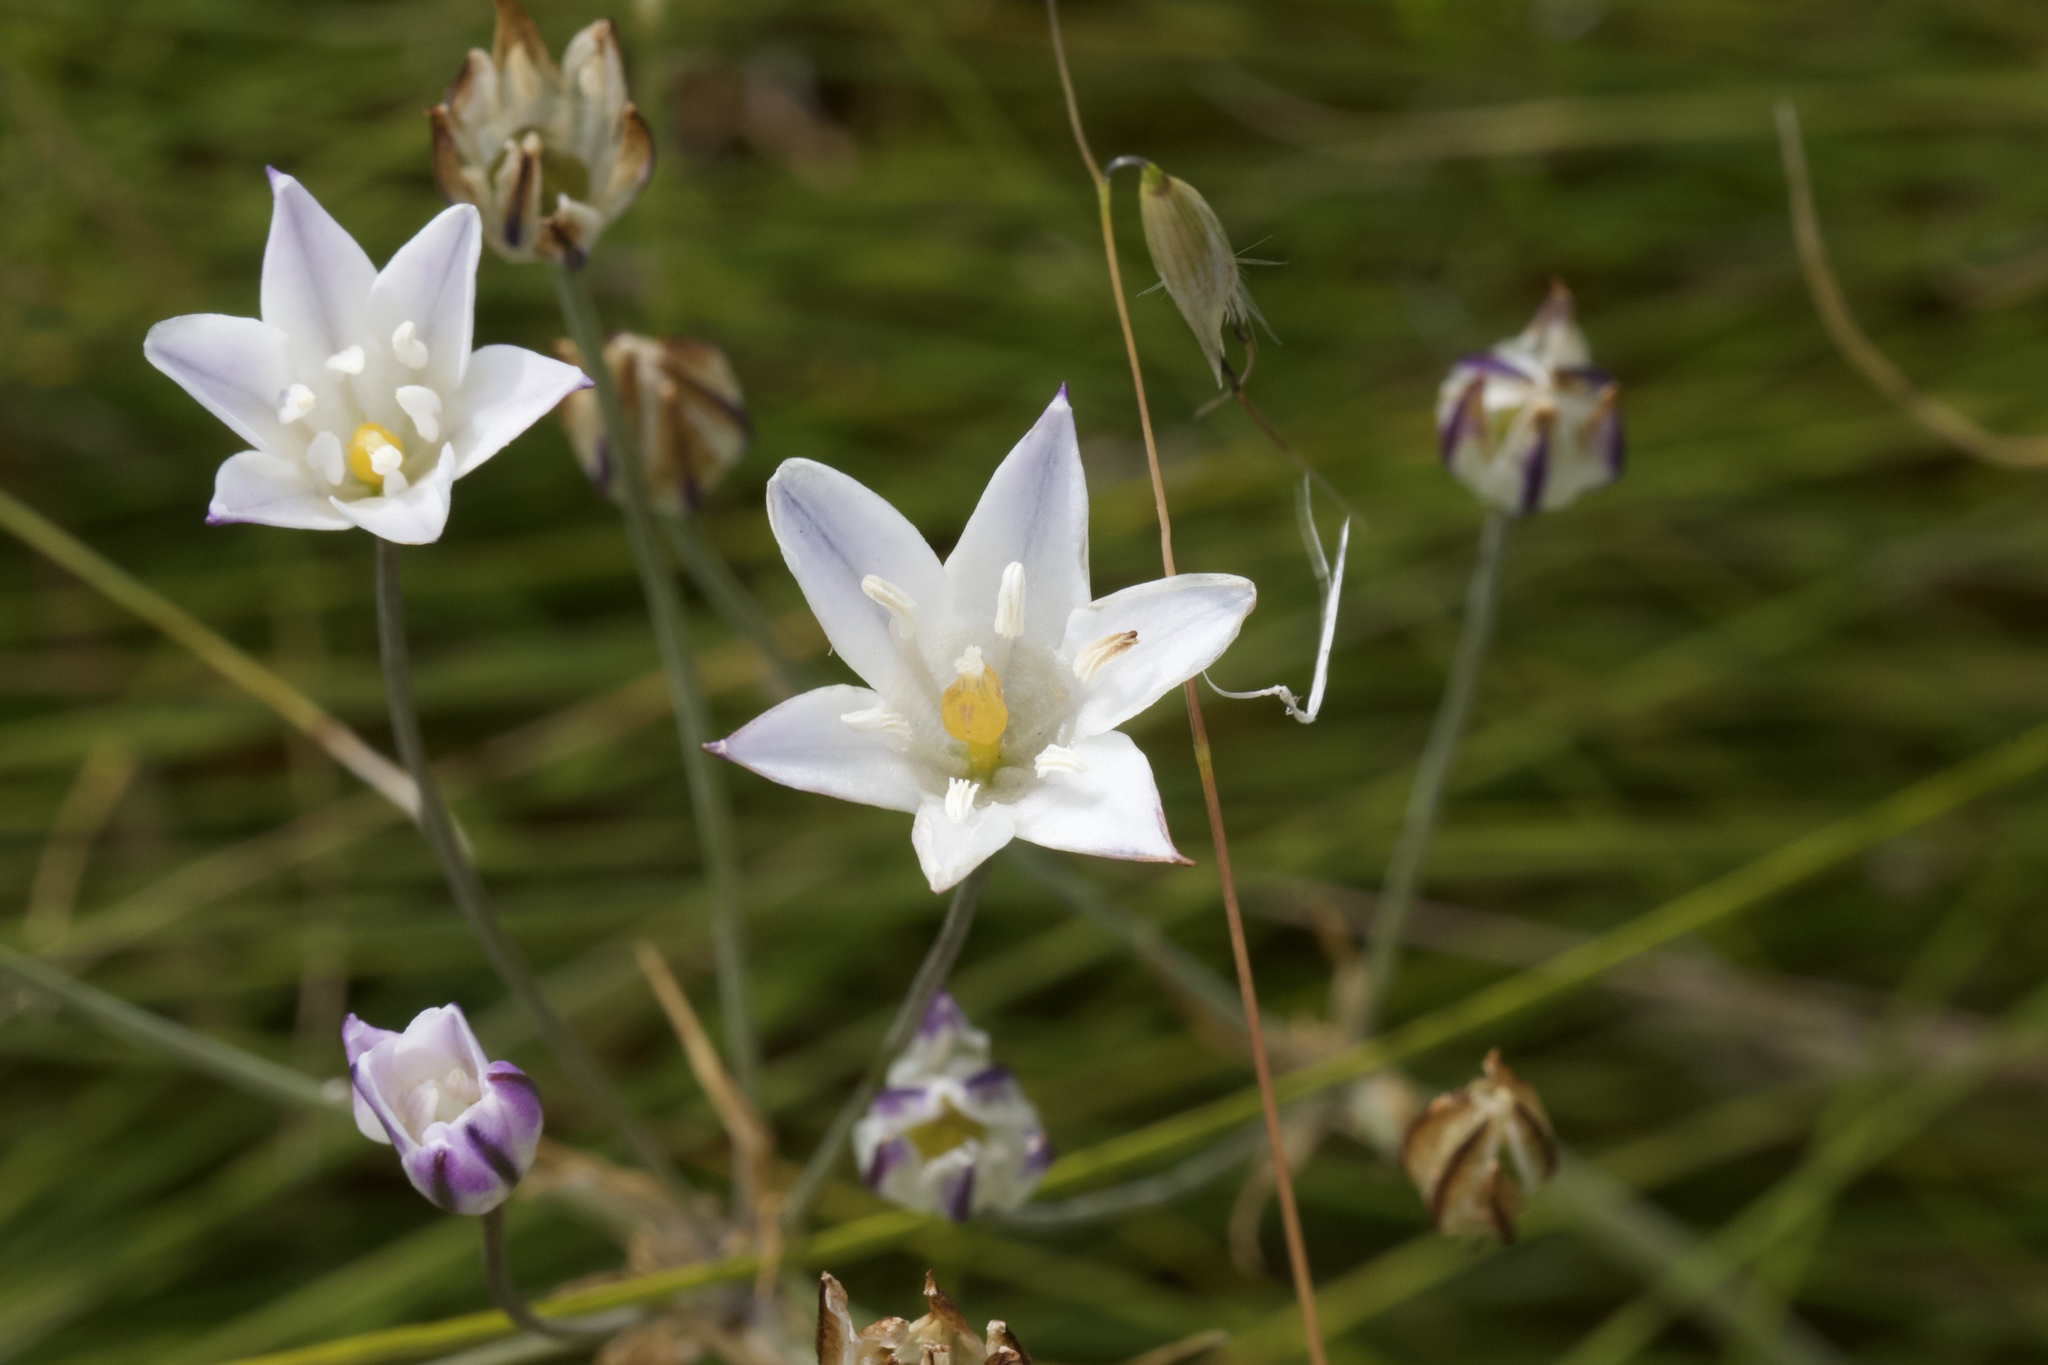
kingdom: Plantae
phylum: Tracheophyta
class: Liliopsida
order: Asparagales
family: Asparagaceae
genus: Triteleia
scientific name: Triteleia peduncularis
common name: Long-ray brodiaea
